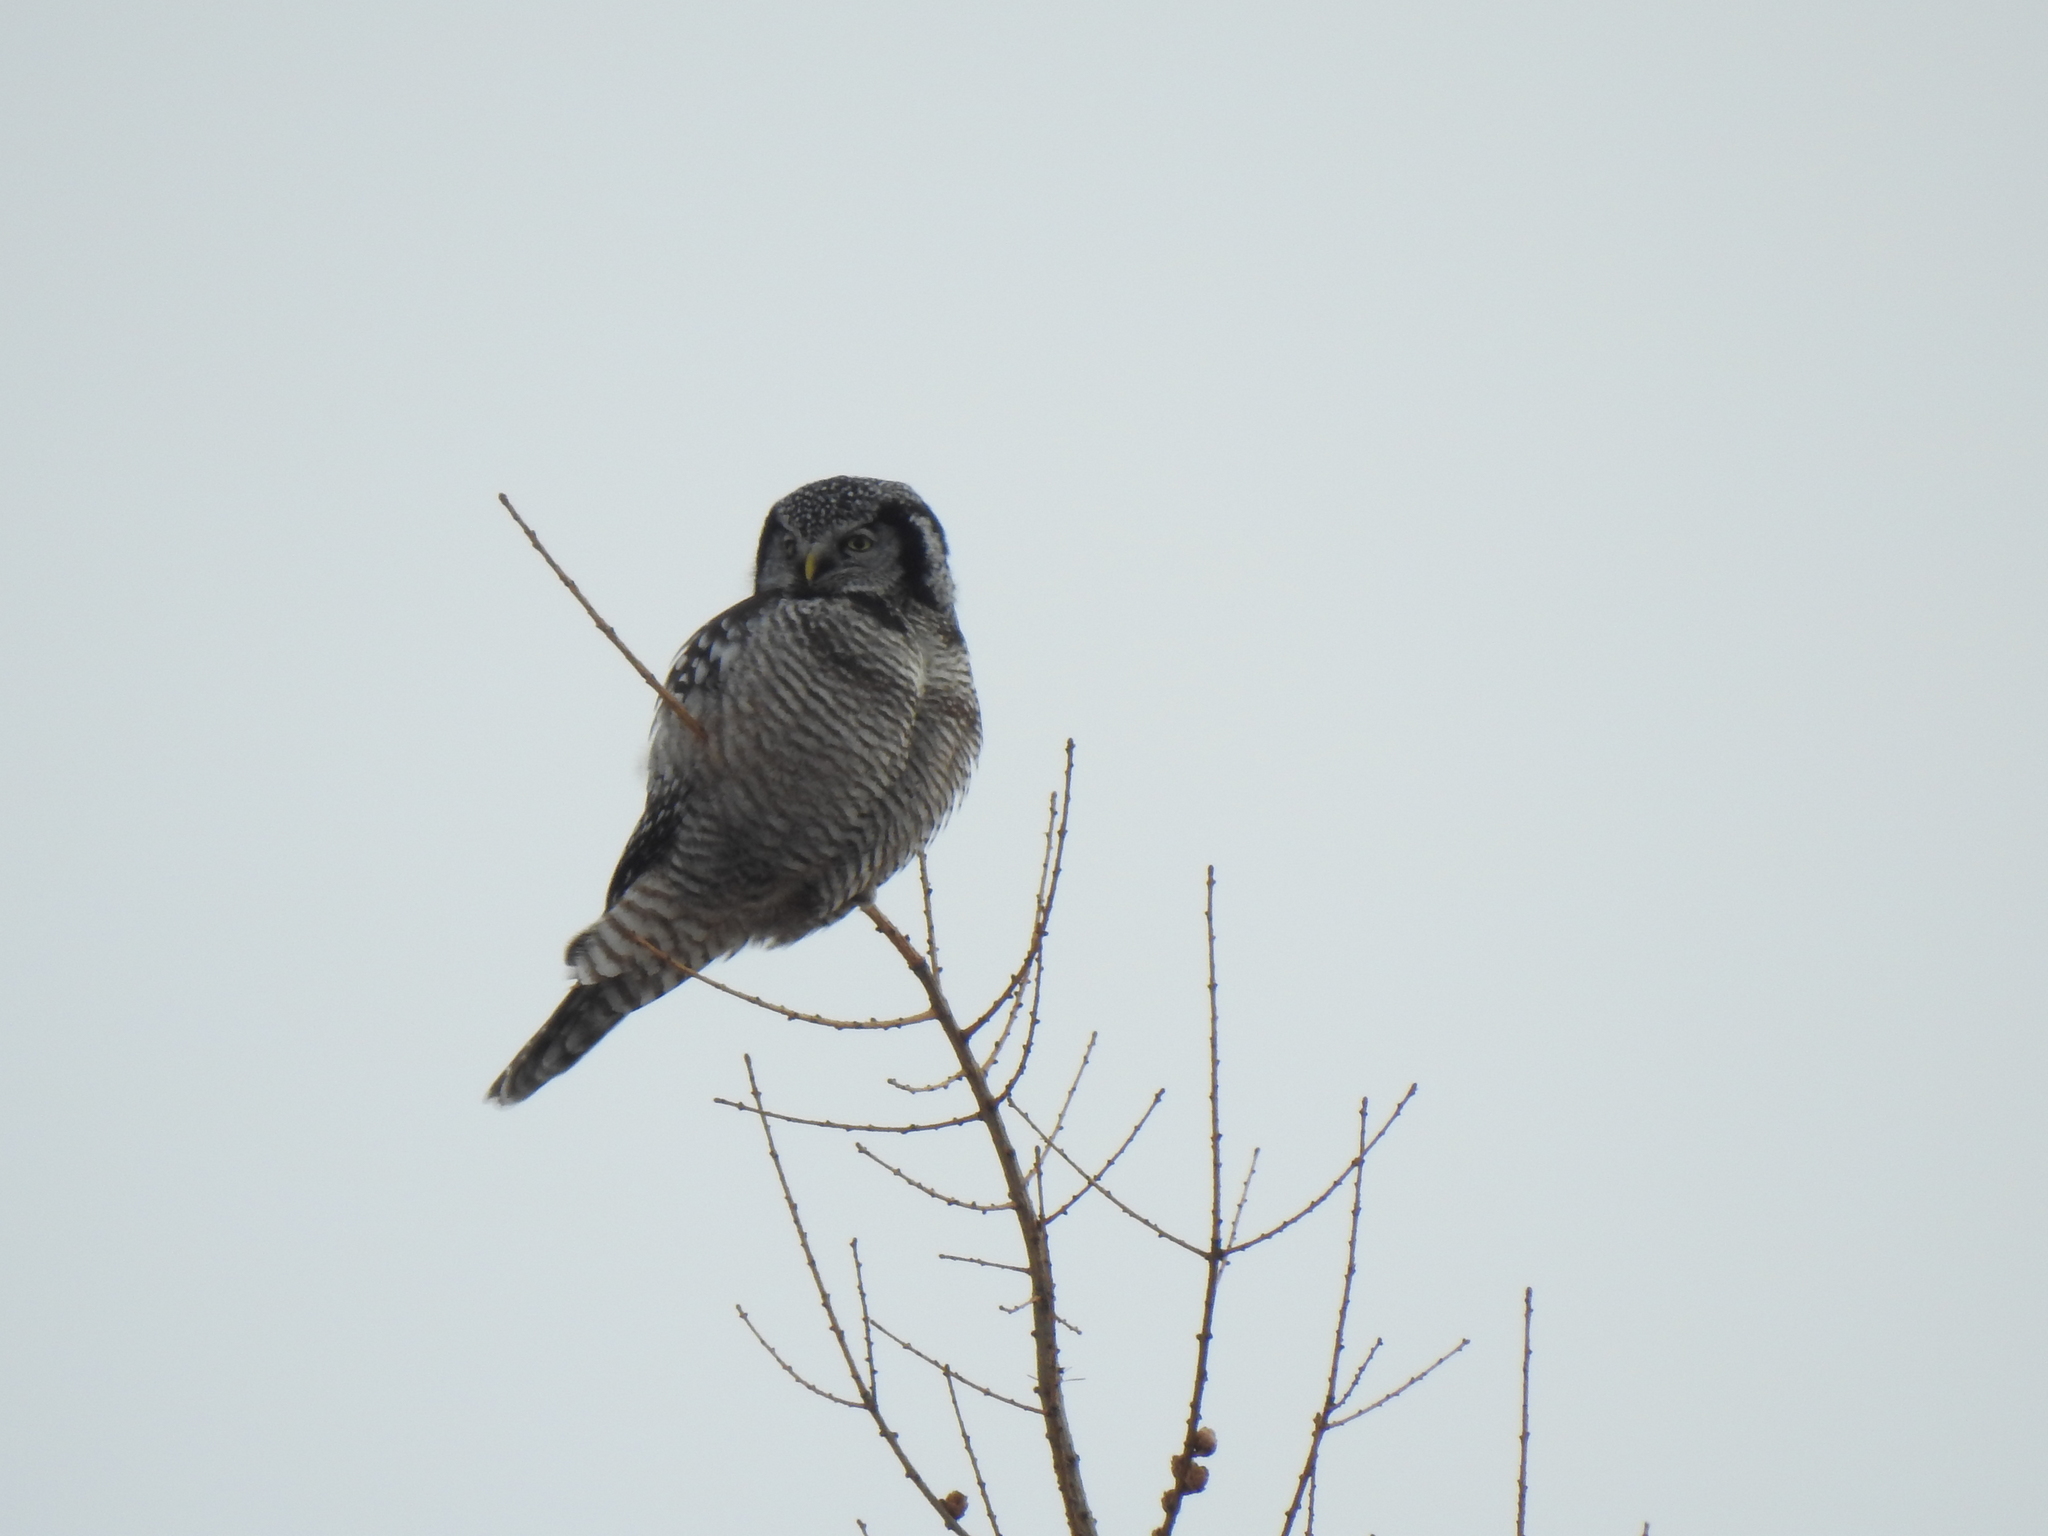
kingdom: Animalia
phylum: Chordata
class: Aves
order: Strigiformes
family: Strigidae
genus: Surnia
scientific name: Surnia ulula
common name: Northern hawk-owl
